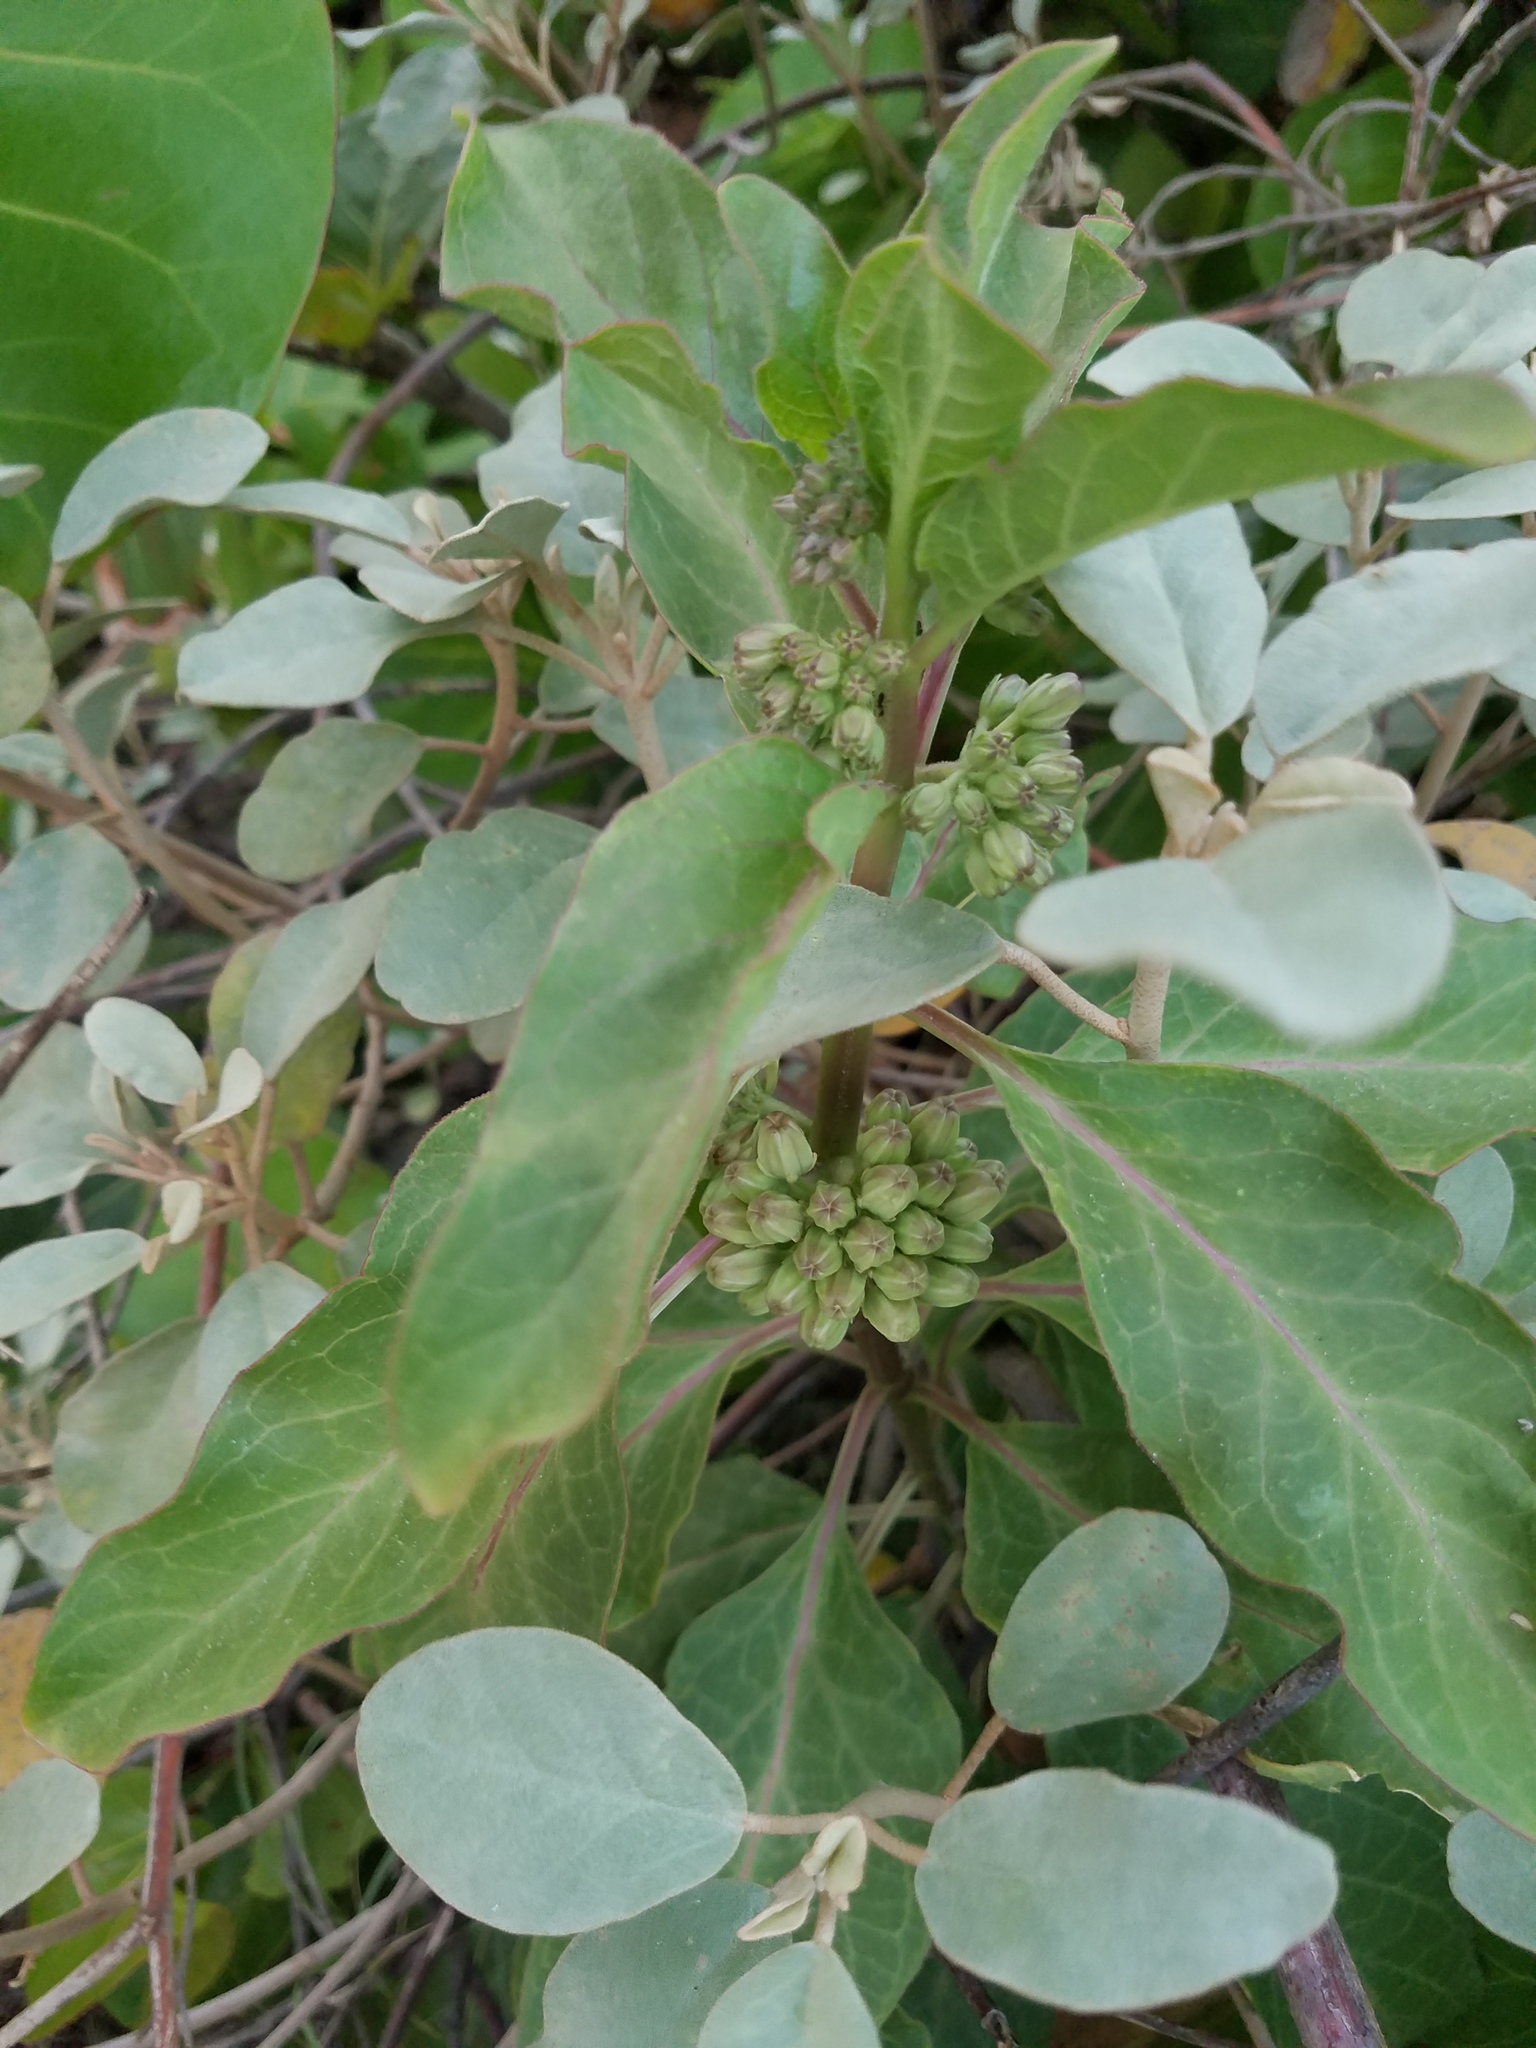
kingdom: Plantae
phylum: Tracheophyta
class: Magnoliopsida
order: Gentianales
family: Apocynaceae
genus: Asclepias
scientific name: Asclepias oenotheroides
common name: Zizotes milkweed
